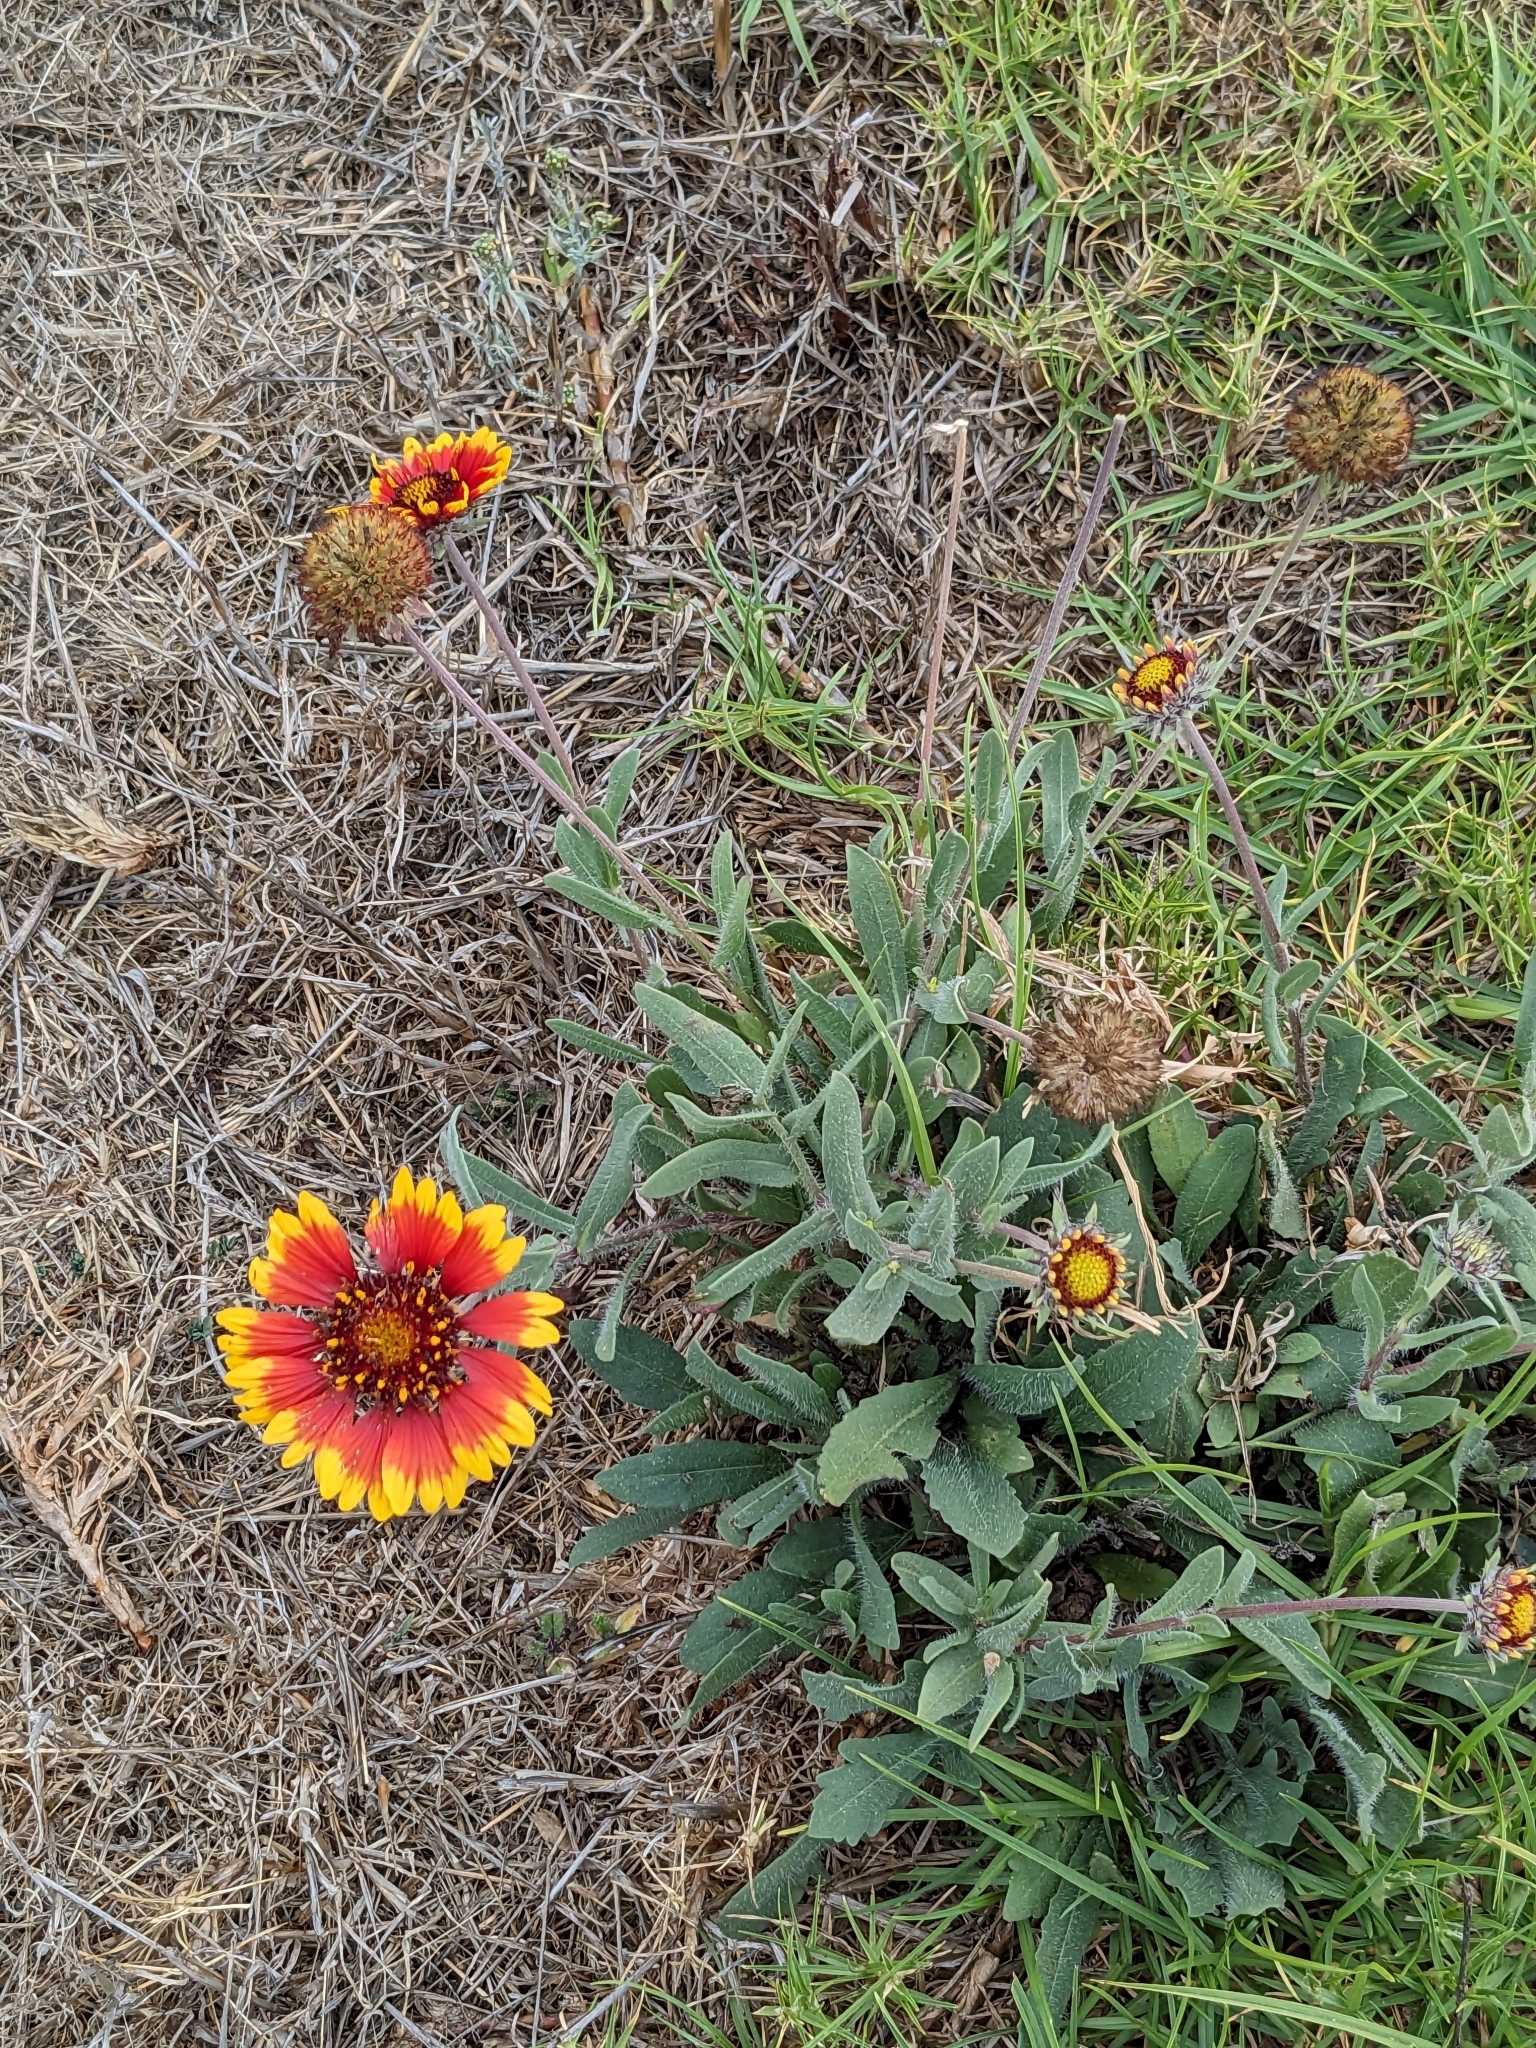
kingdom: Plantae
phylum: Tracheophyta
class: Magnoliopsida
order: Asterales
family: Asteraceae
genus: Gaillardia
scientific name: Gaillardia pulchella
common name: Firewheel
